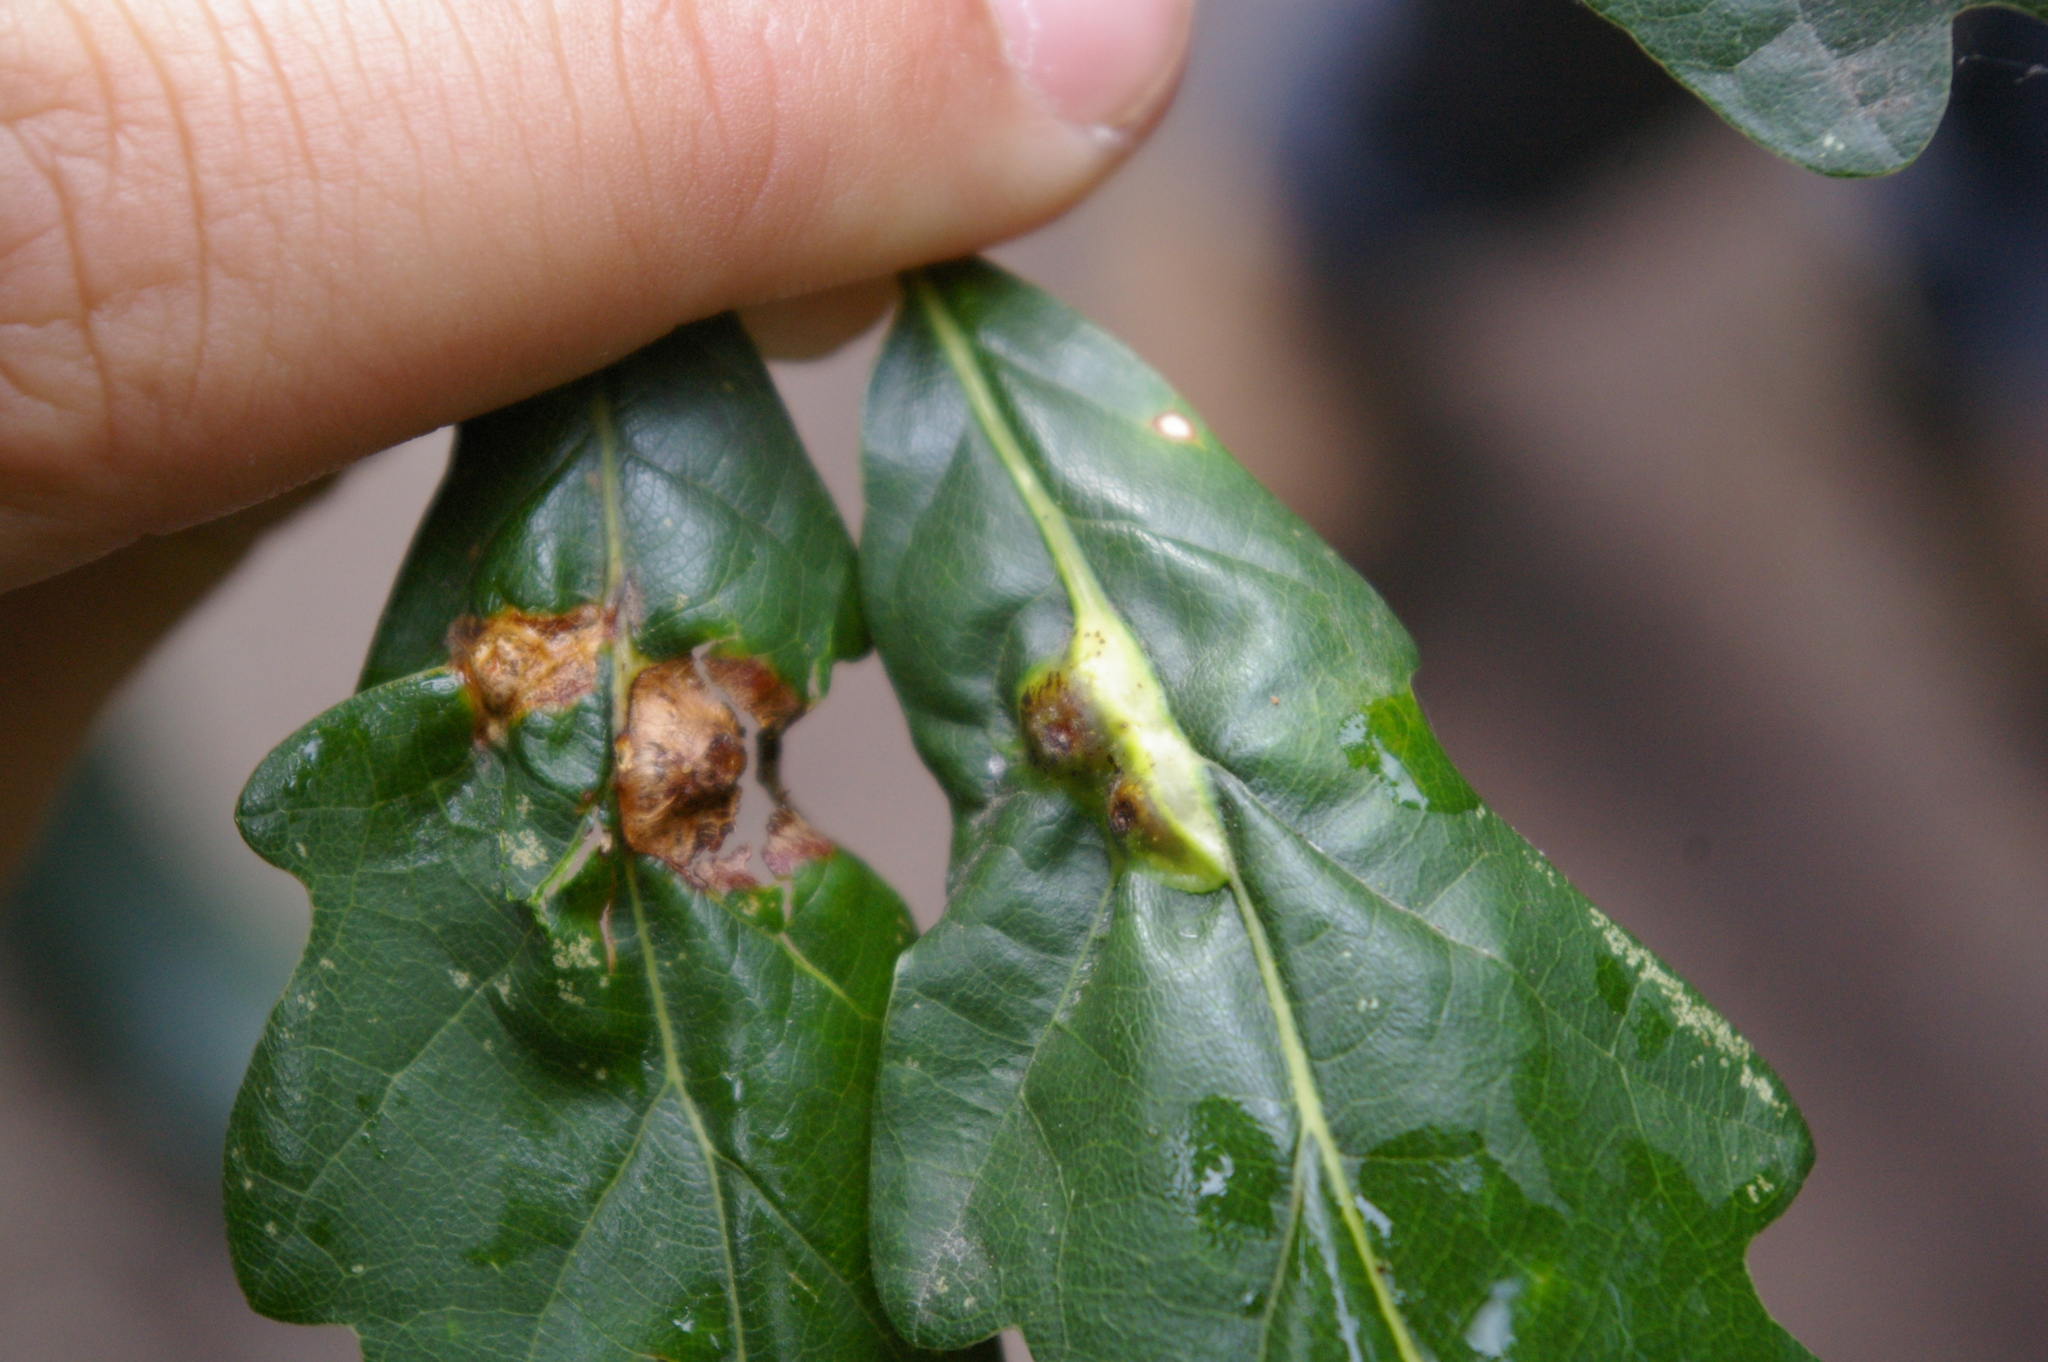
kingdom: Animalia
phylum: Arthropoda
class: Insecta
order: Hymenoptera
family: Cynipidae
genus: Andricus
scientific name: Andricus curvator
